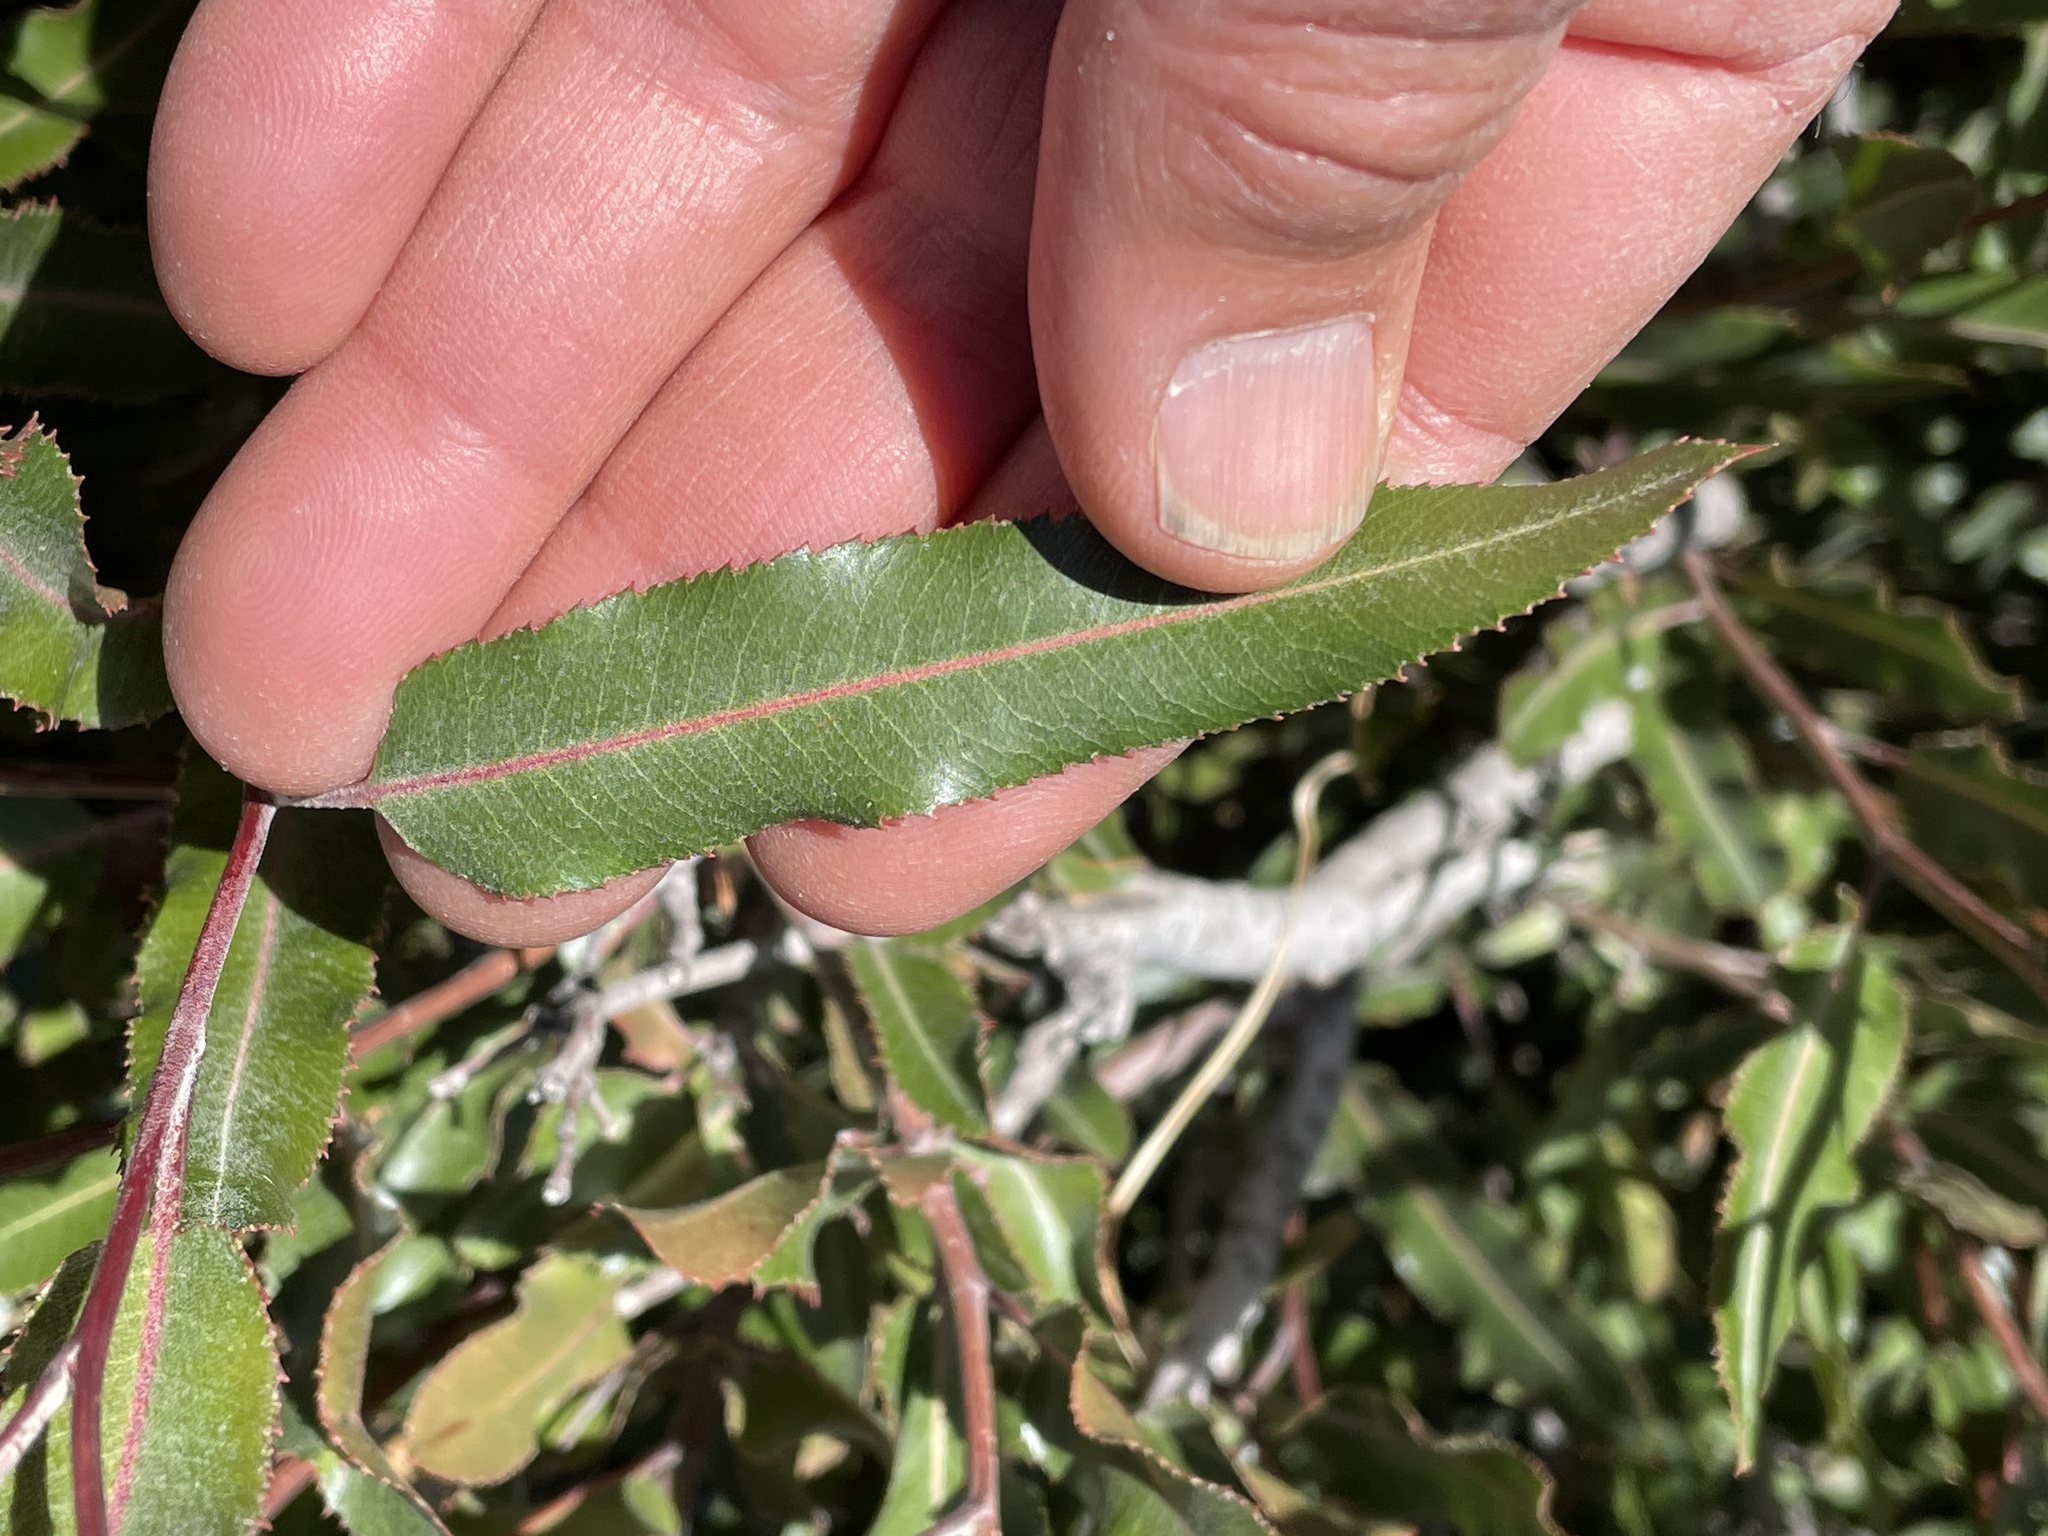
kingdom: Plantae
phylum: Tracheophyta
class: Magnoliopsida
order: Rosales
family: Rosaceae
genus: Vauquelinia
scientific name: Vauquelinia californica
